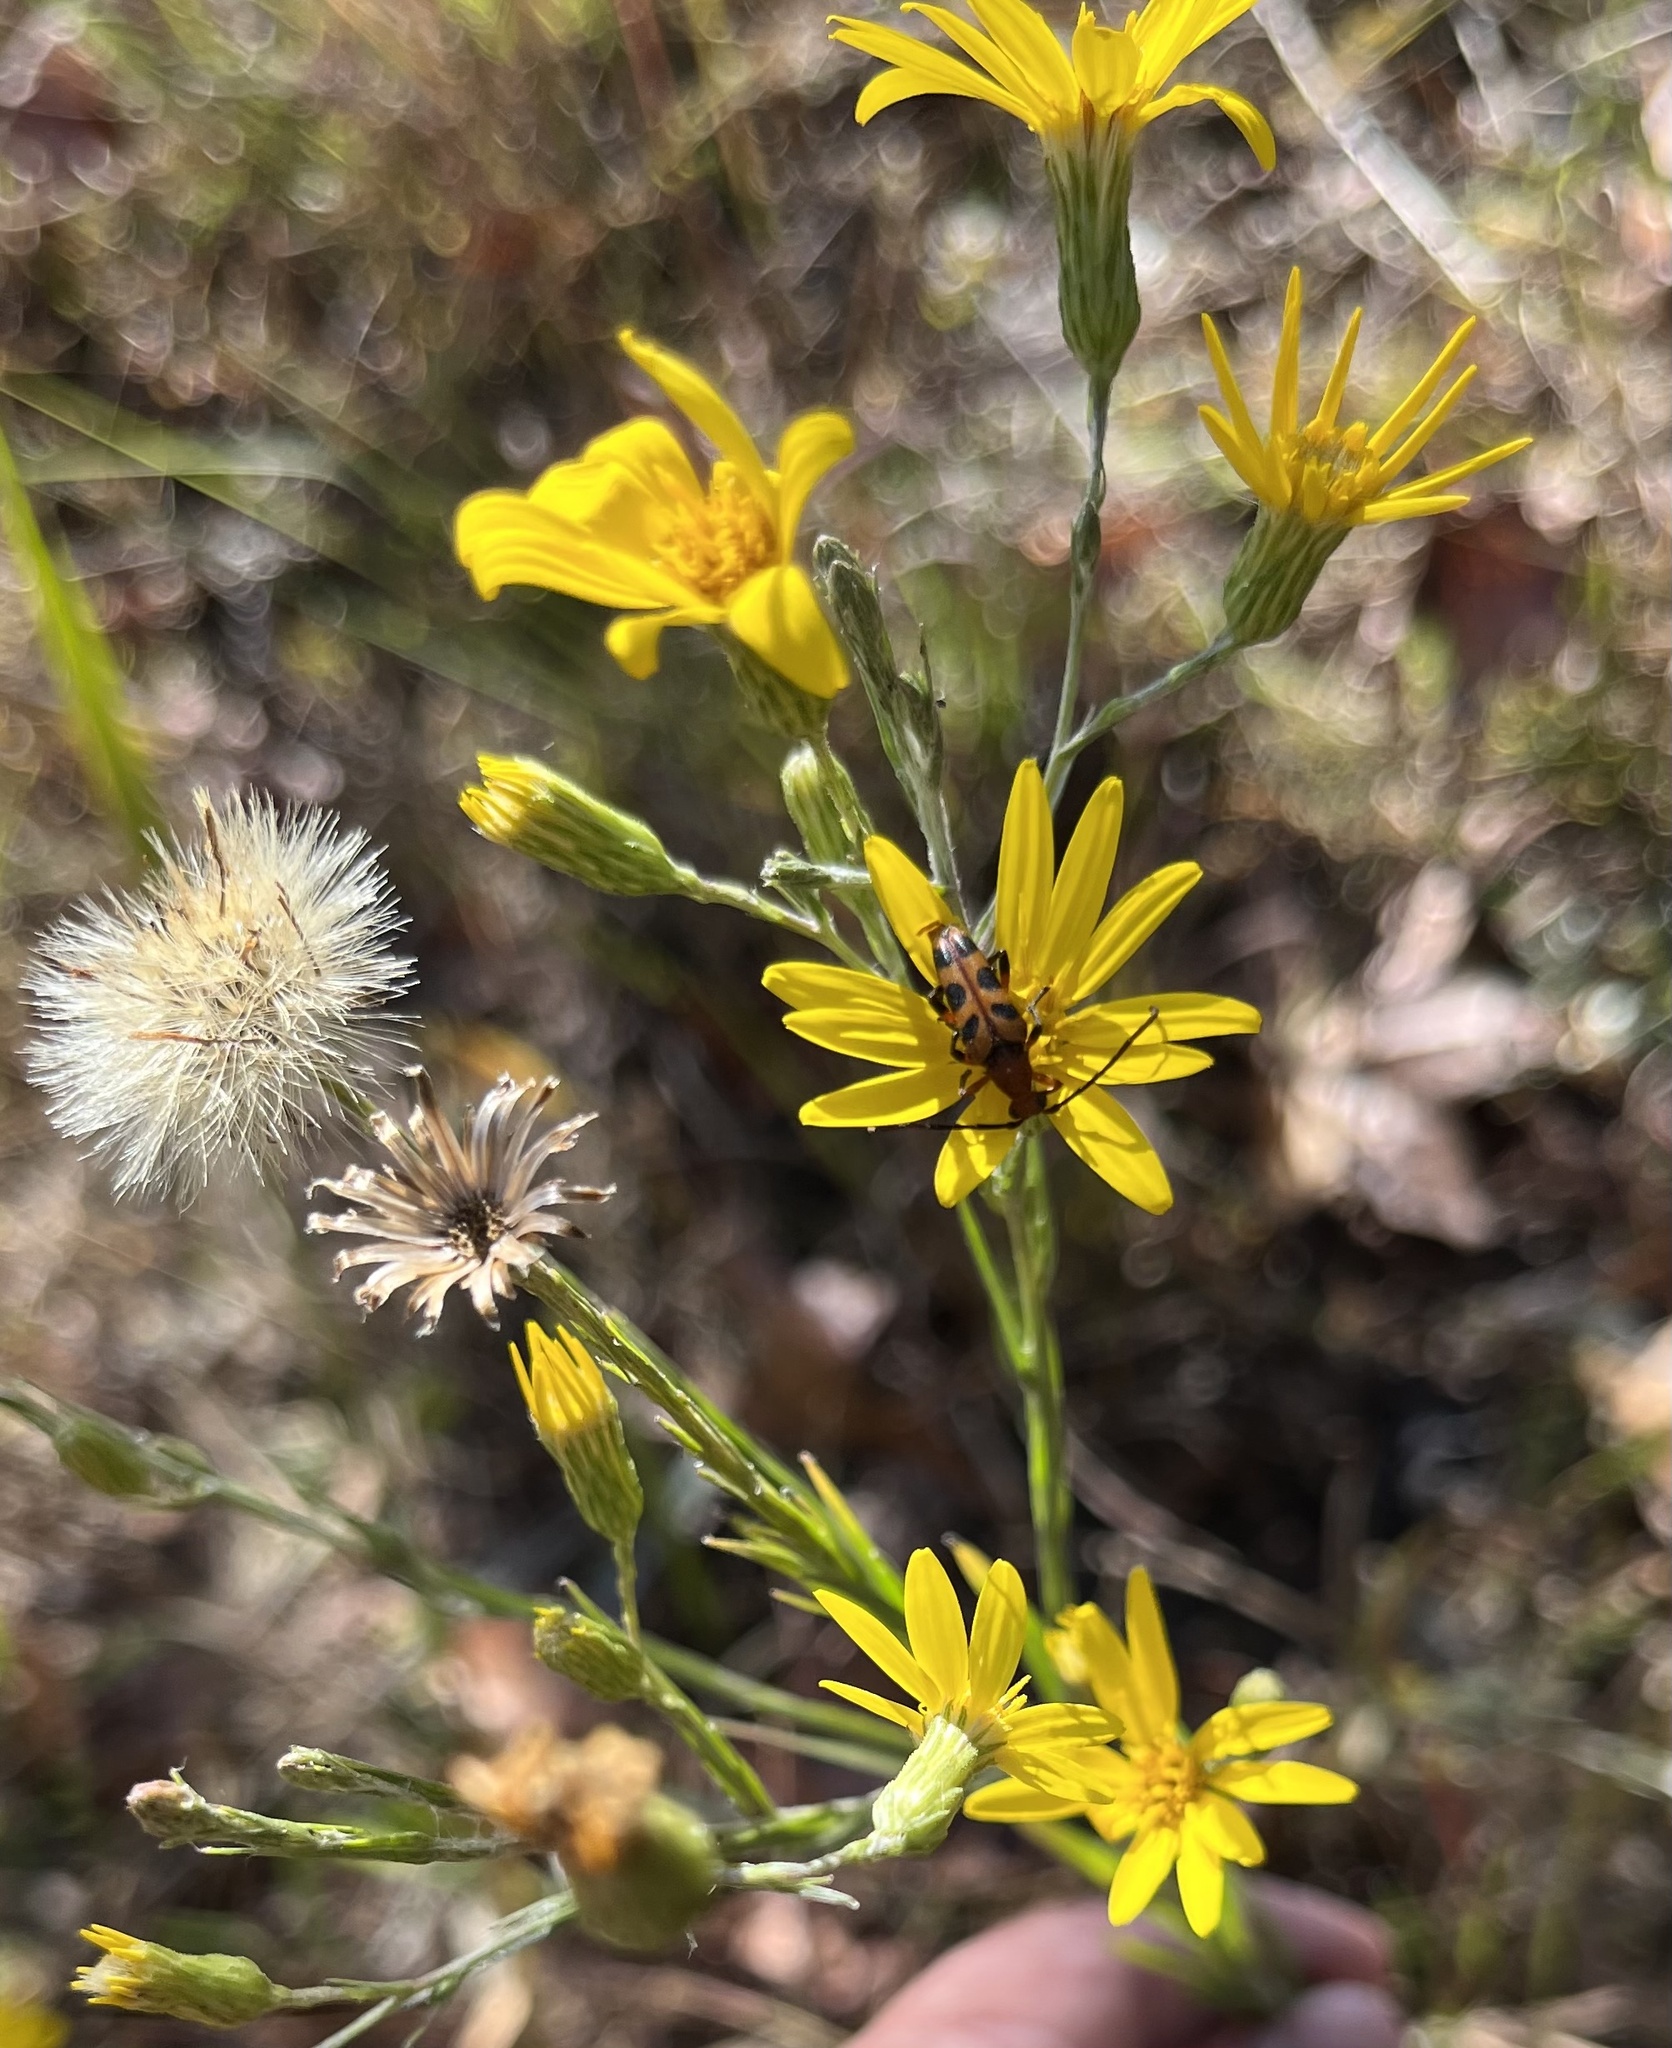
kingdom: Plantae
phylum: Tracheophyta
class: Magnoliopsida
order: Asterales
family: Asteraceae
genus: Pityopsis
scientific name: Pityopsis graminifolia
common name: Grass-leaf golden-aster
